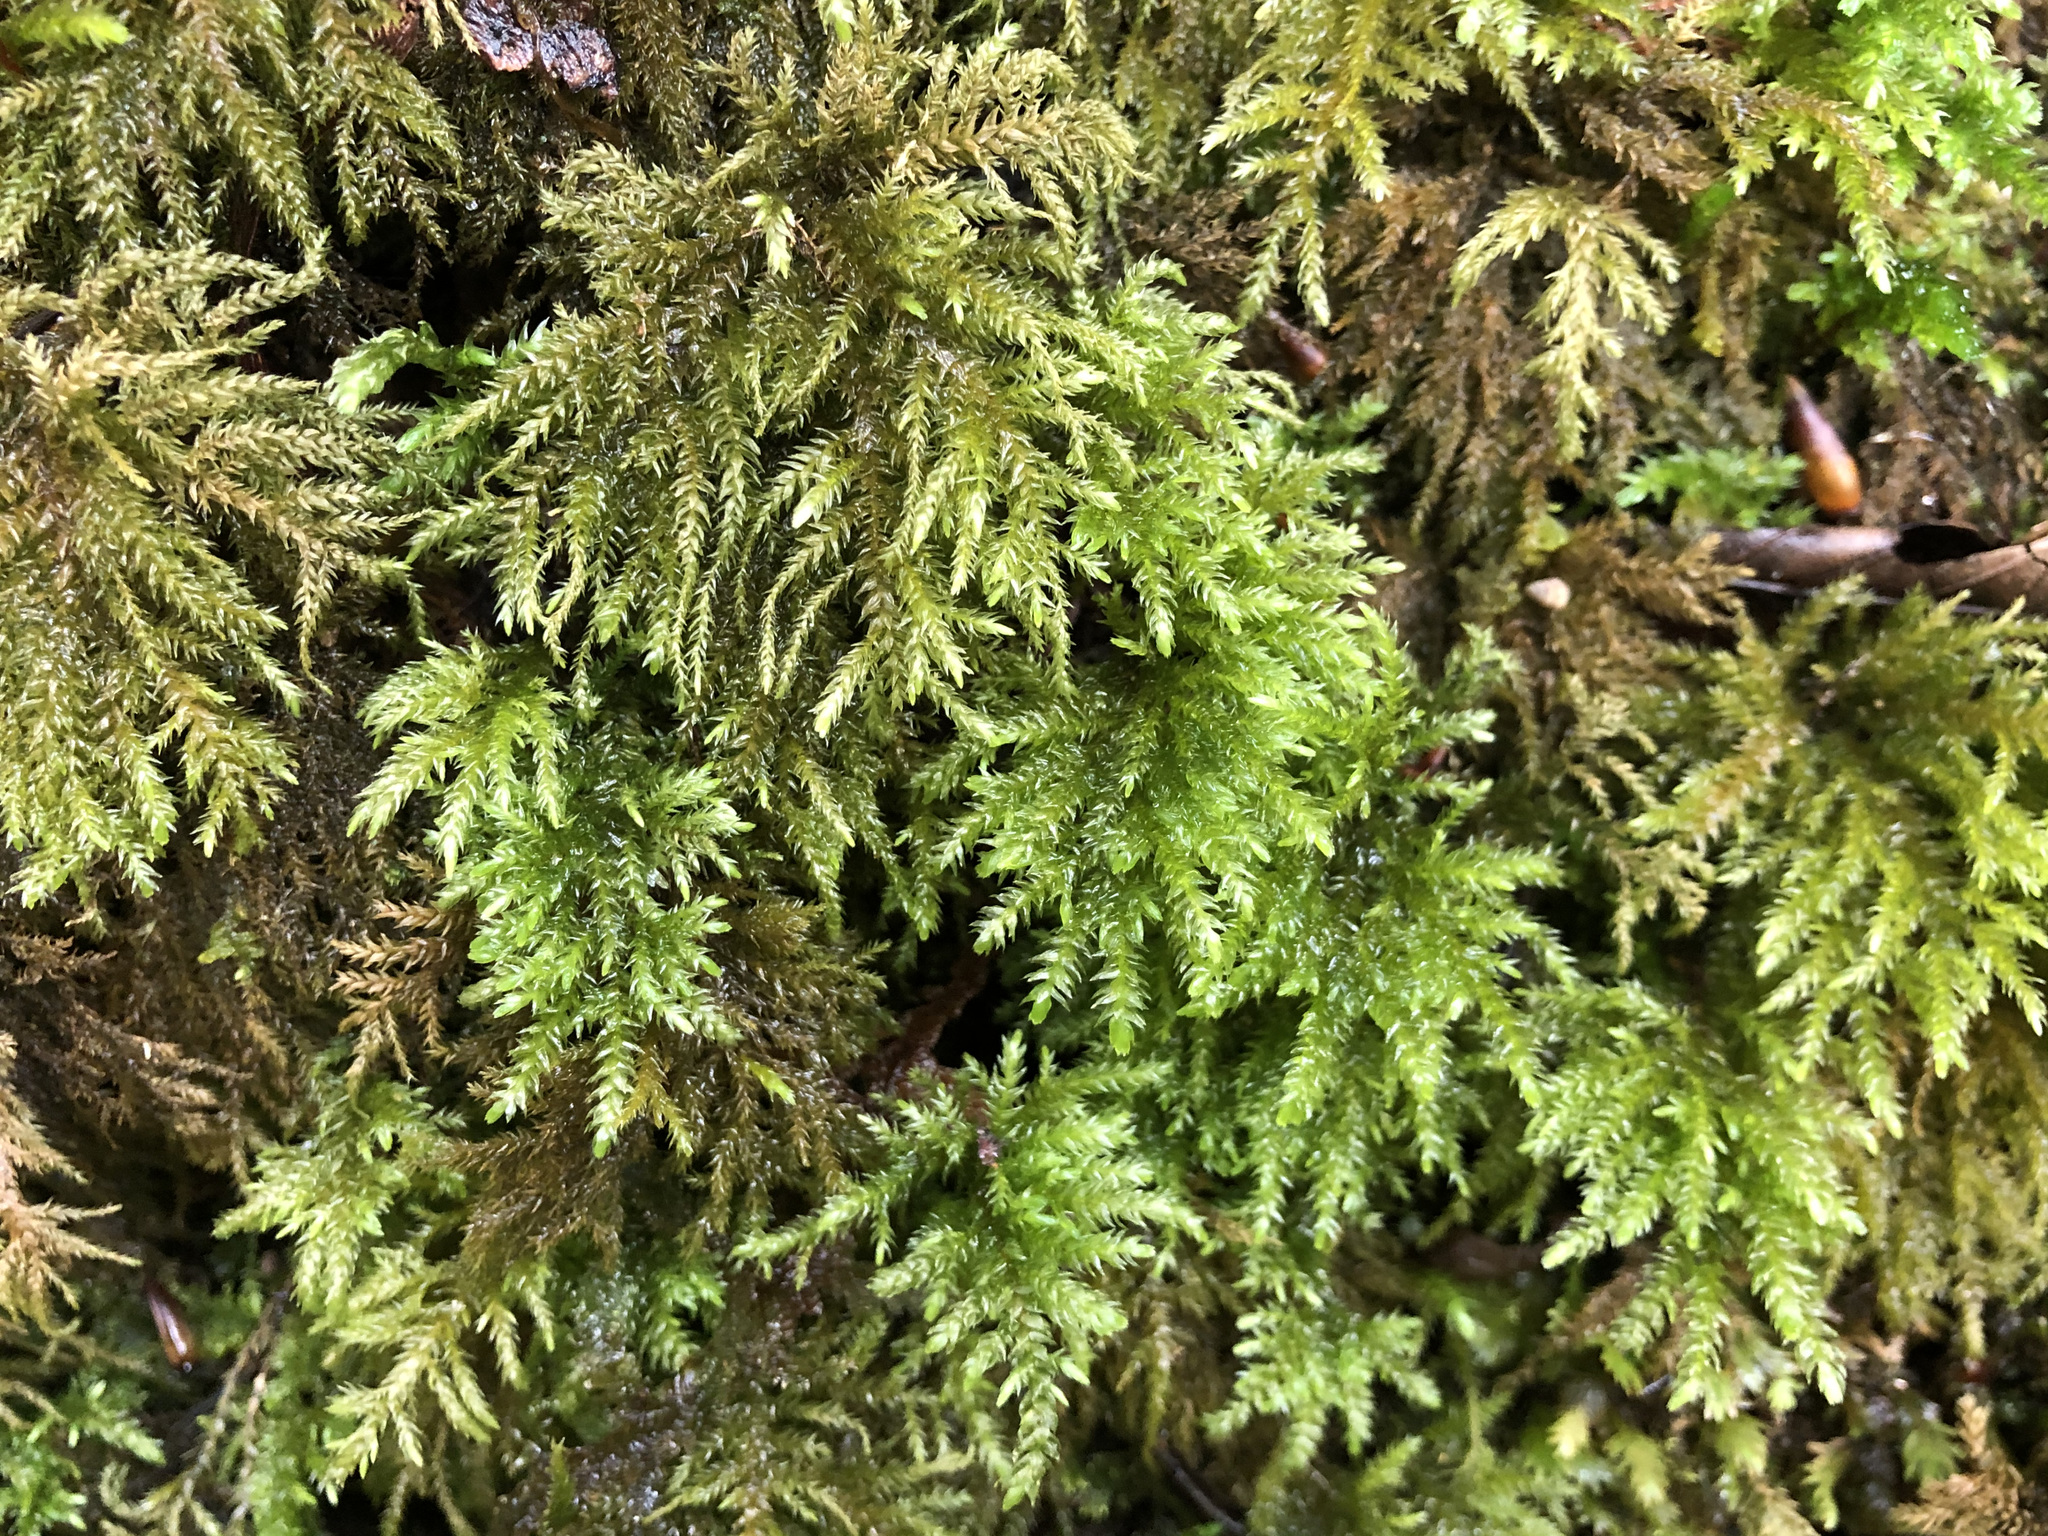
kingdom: Plantae
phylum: Bryophyta
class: Bryopsida
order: Hypnales
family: Neckeraceae
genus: Thamnobryum
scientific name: Thamnobryum alopecurum
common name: Fox-tail feather-moss
